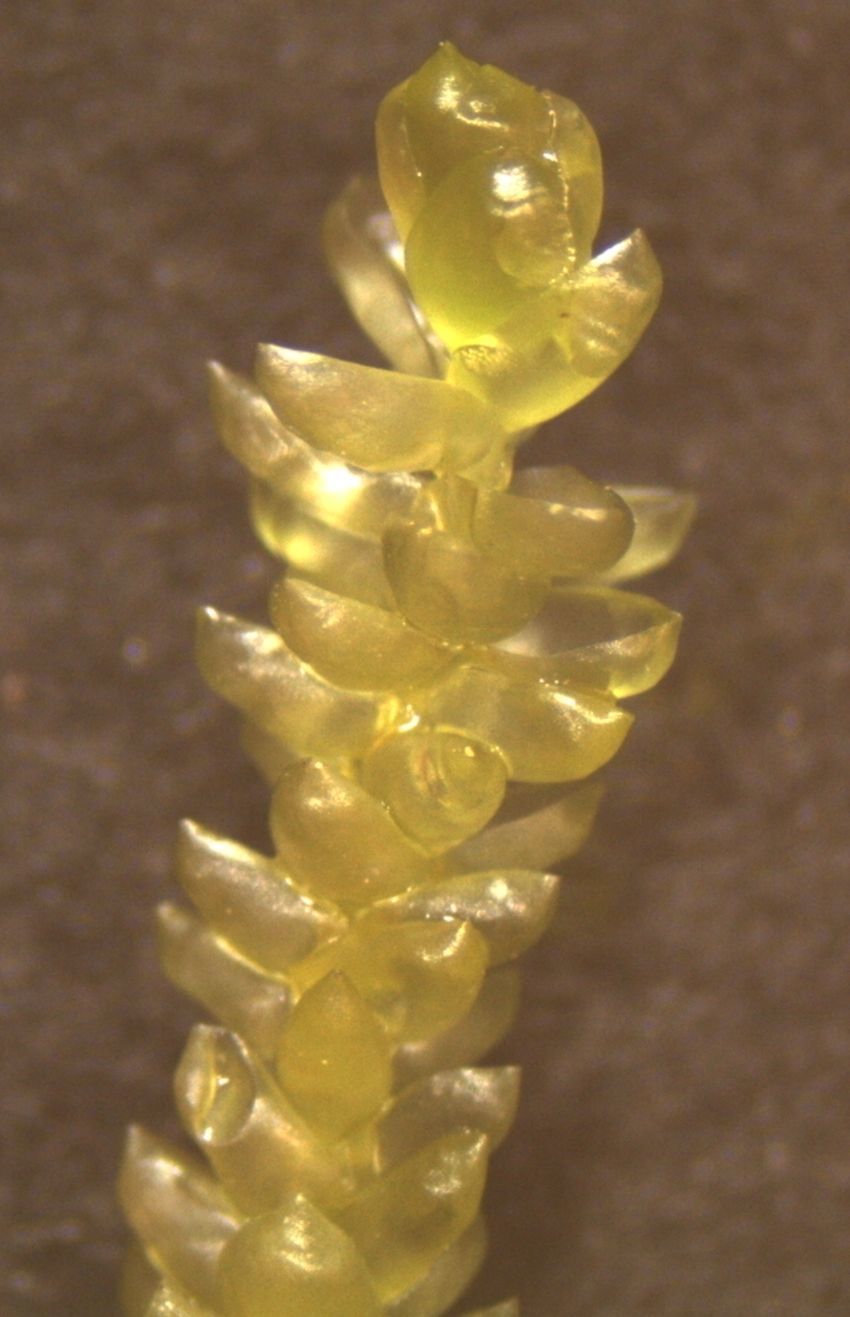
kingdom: Plantae
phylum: Bryophyta
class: Bryopsida
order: Hypnales
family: Lembophyllaceae
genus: Weymouthia
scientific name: Weymouthia cochlearifolia
